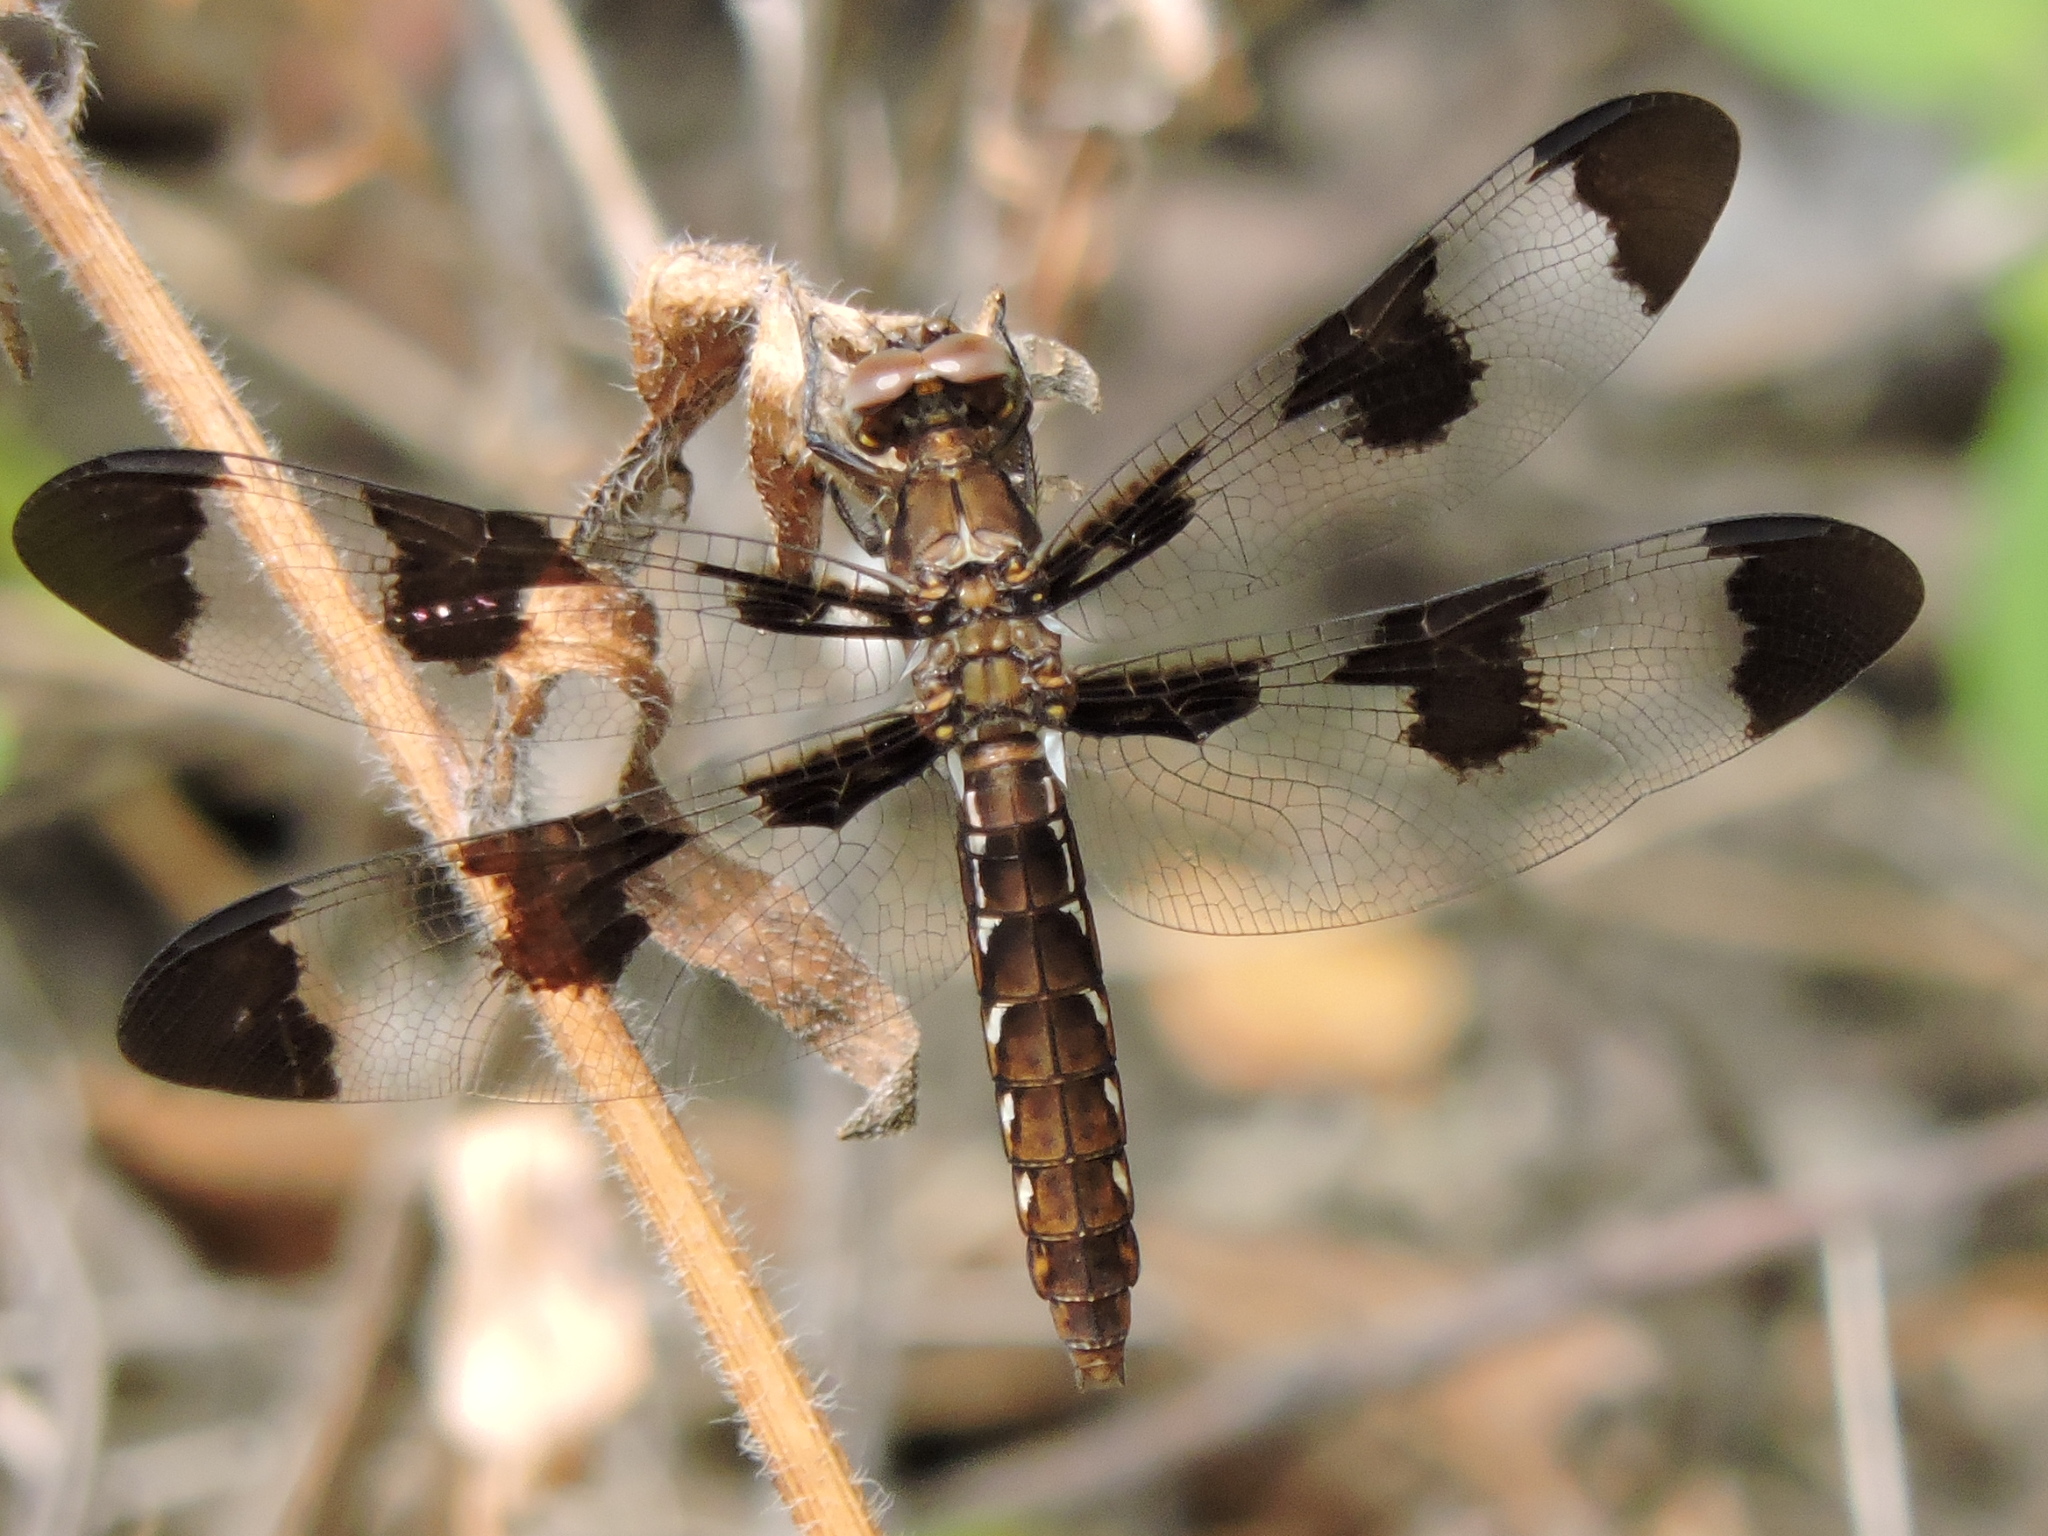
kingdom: Animalia
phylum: Arthropoda
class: Insecta
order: Odonata
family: Libellulidae
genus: Plathemis
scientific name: Plathemis lydia
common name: Common whitetail
